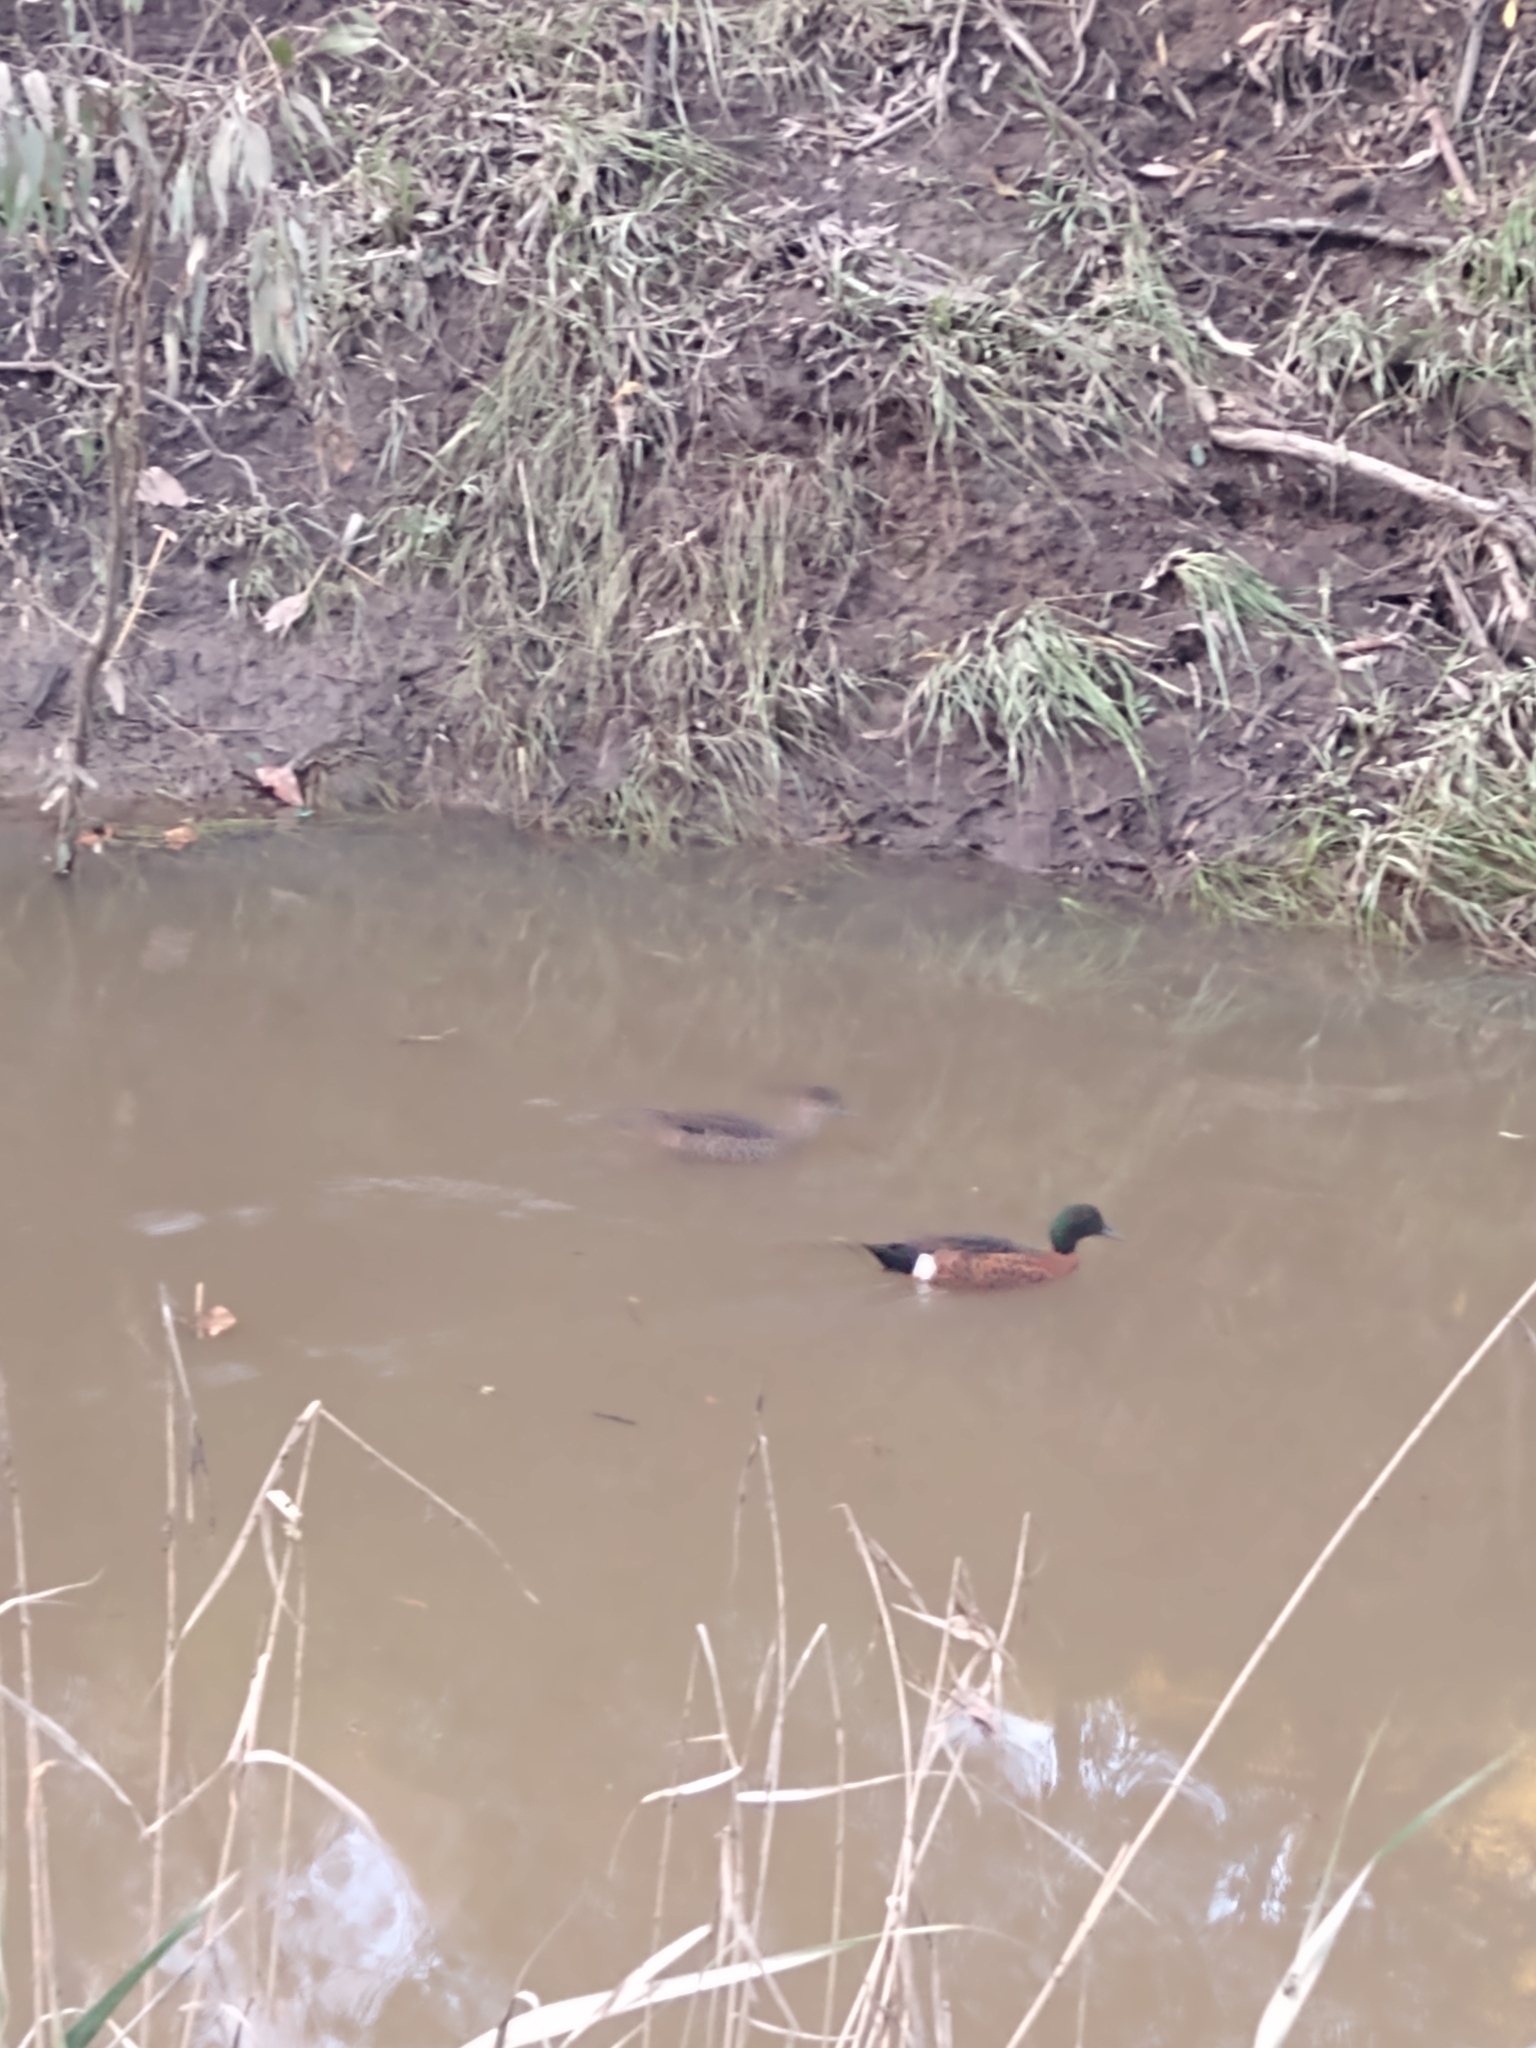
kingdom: Animalia
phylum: Chordata
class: Aves
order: Anseriformes
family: Anatidae
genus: Anas
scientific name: Anas castanea
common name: Chestnut teal
